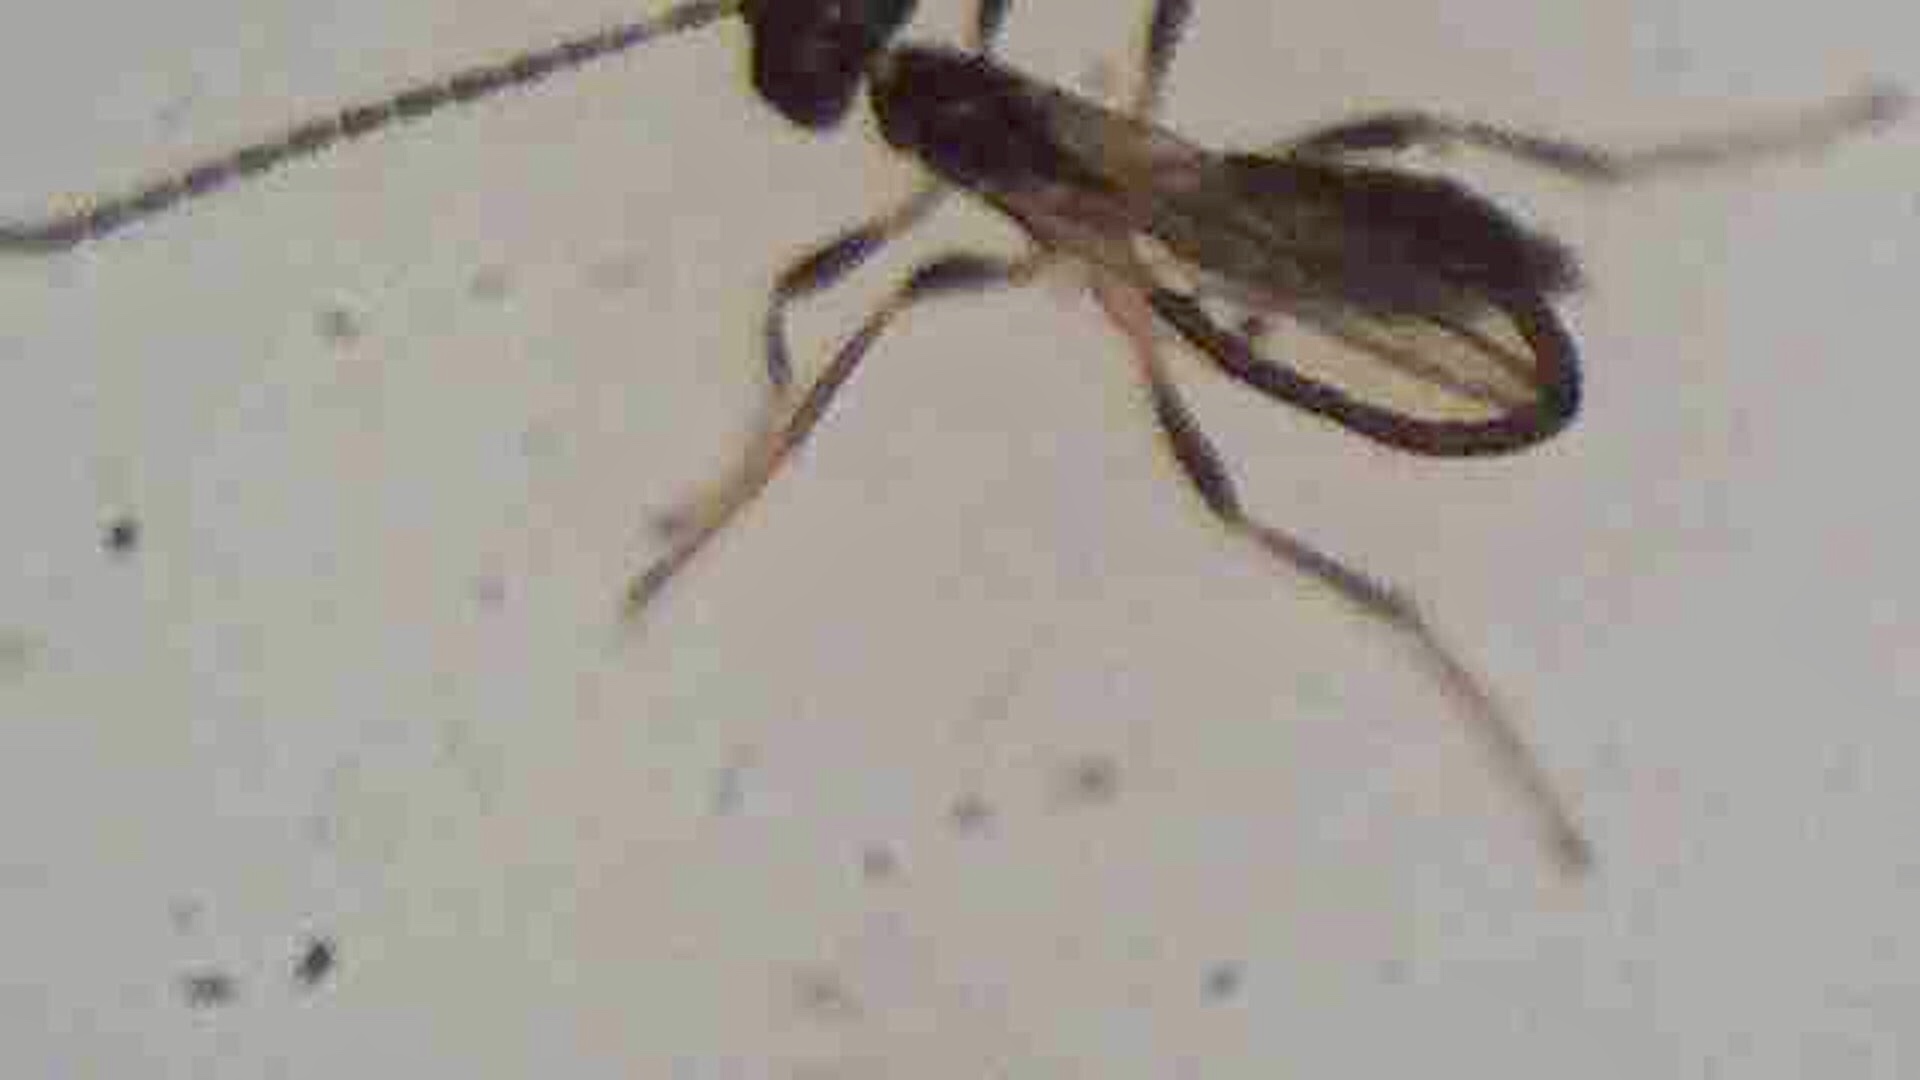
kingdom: Animalia
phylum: Arthropoda
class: Insecta
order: Hymenoptera
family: Braconidae
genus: Aspilota
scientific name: Aspilota albertica
